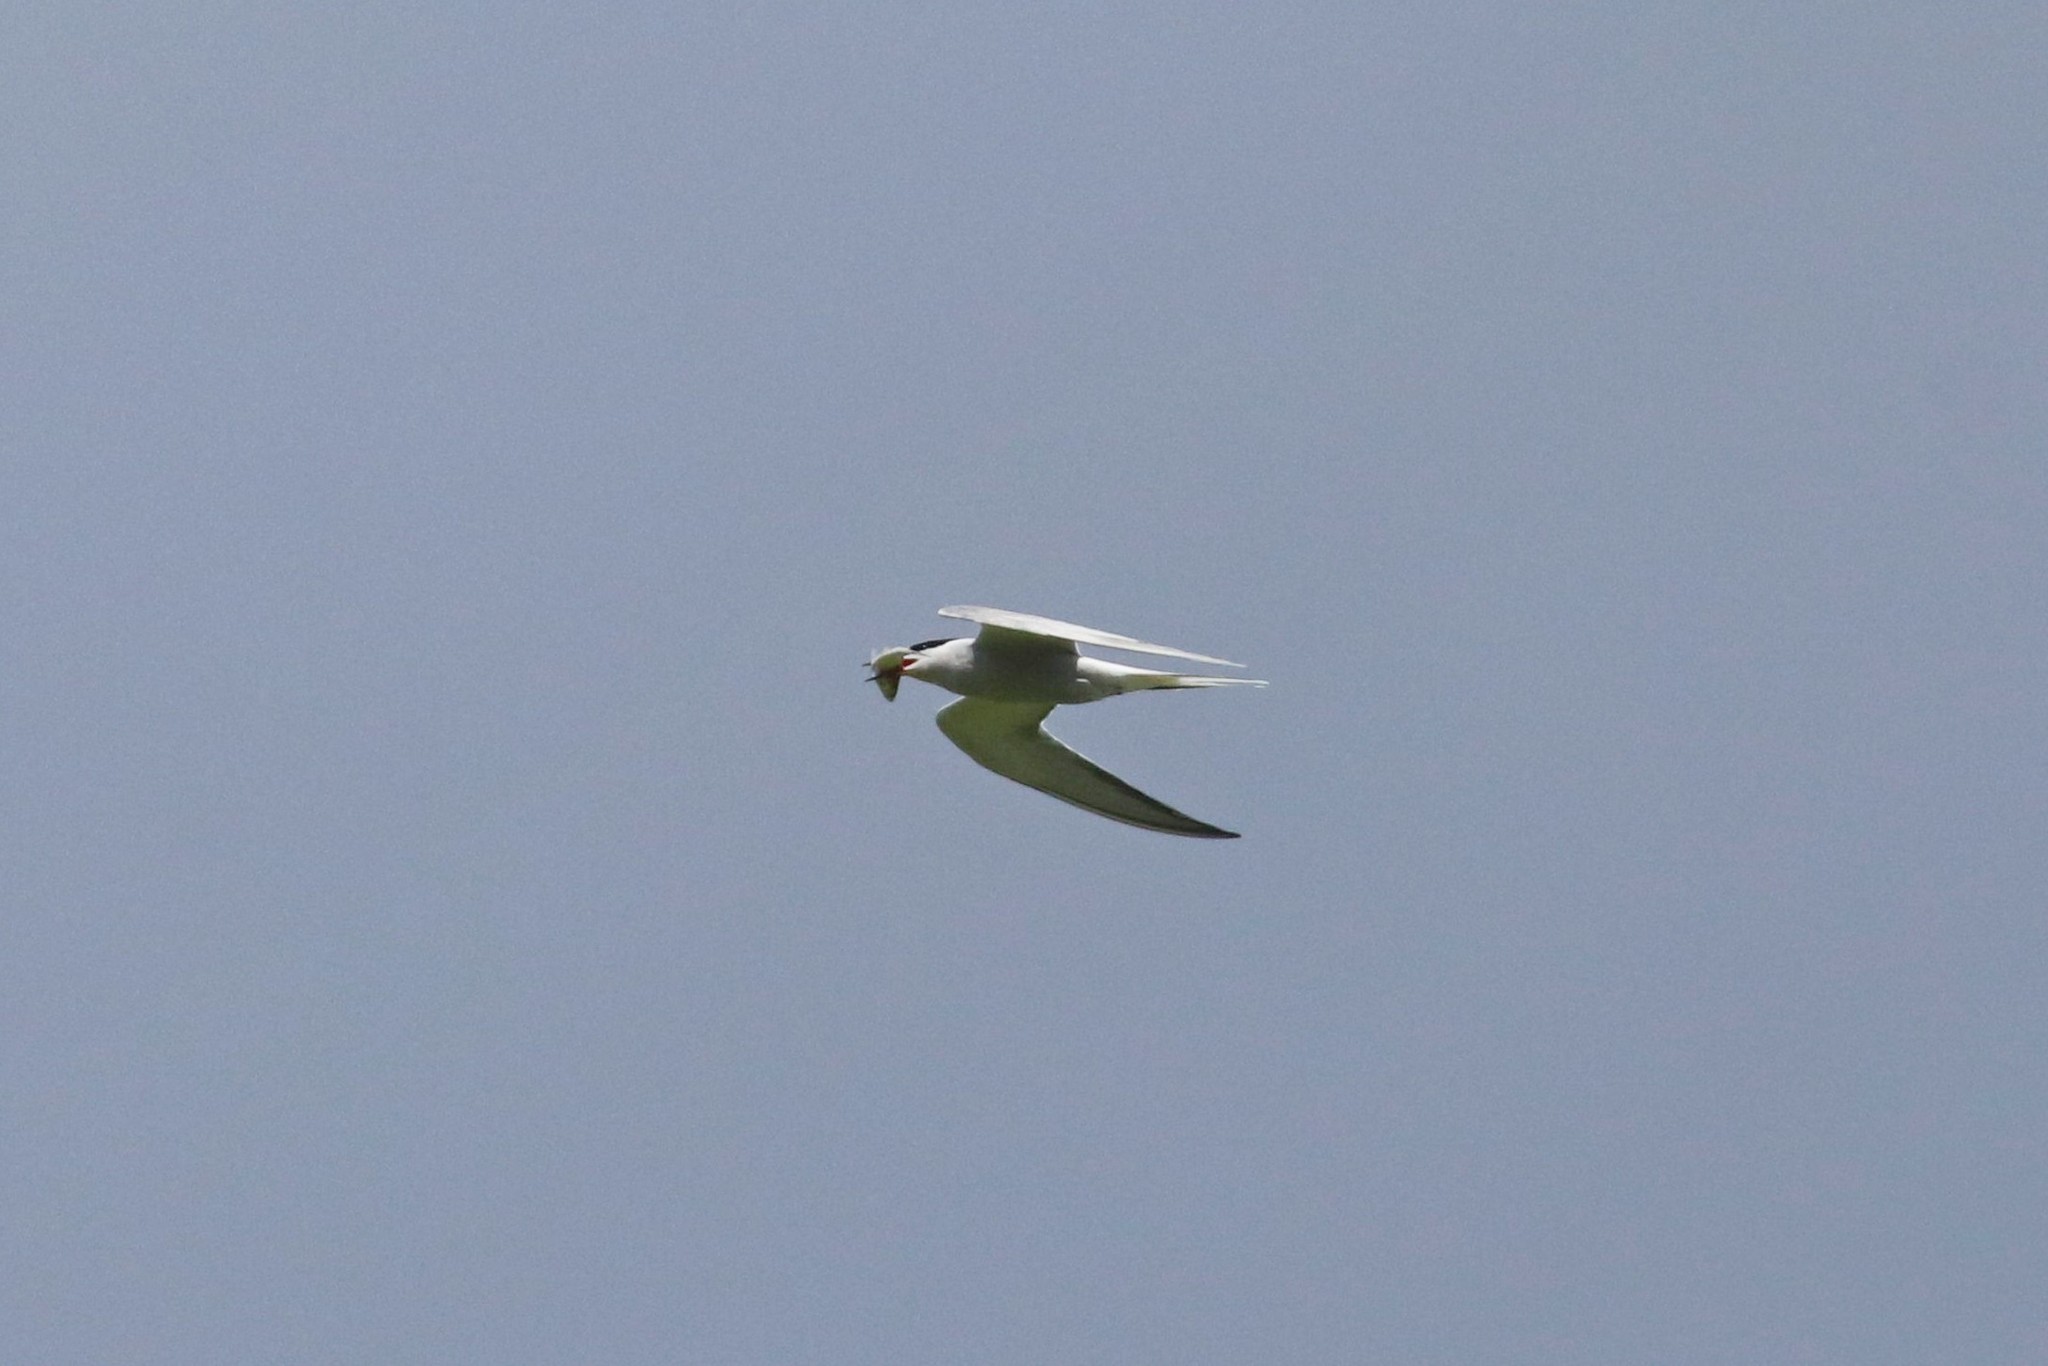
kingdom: Animalia
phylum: Chordata
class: Aves
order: Charadriiformes
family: Laridae
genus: Sterna
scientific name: Sterna hirundo
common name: Common tern
